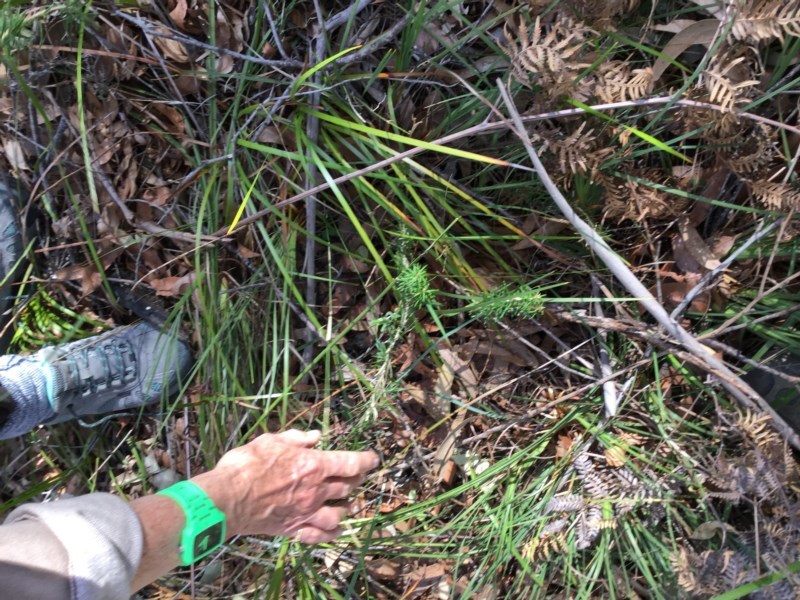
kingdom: Plantae
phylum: Tracheophyta
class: Magnoliopsida
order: Apiales
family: Araliaceae
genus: Astrotricha
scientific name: Astrotricha
